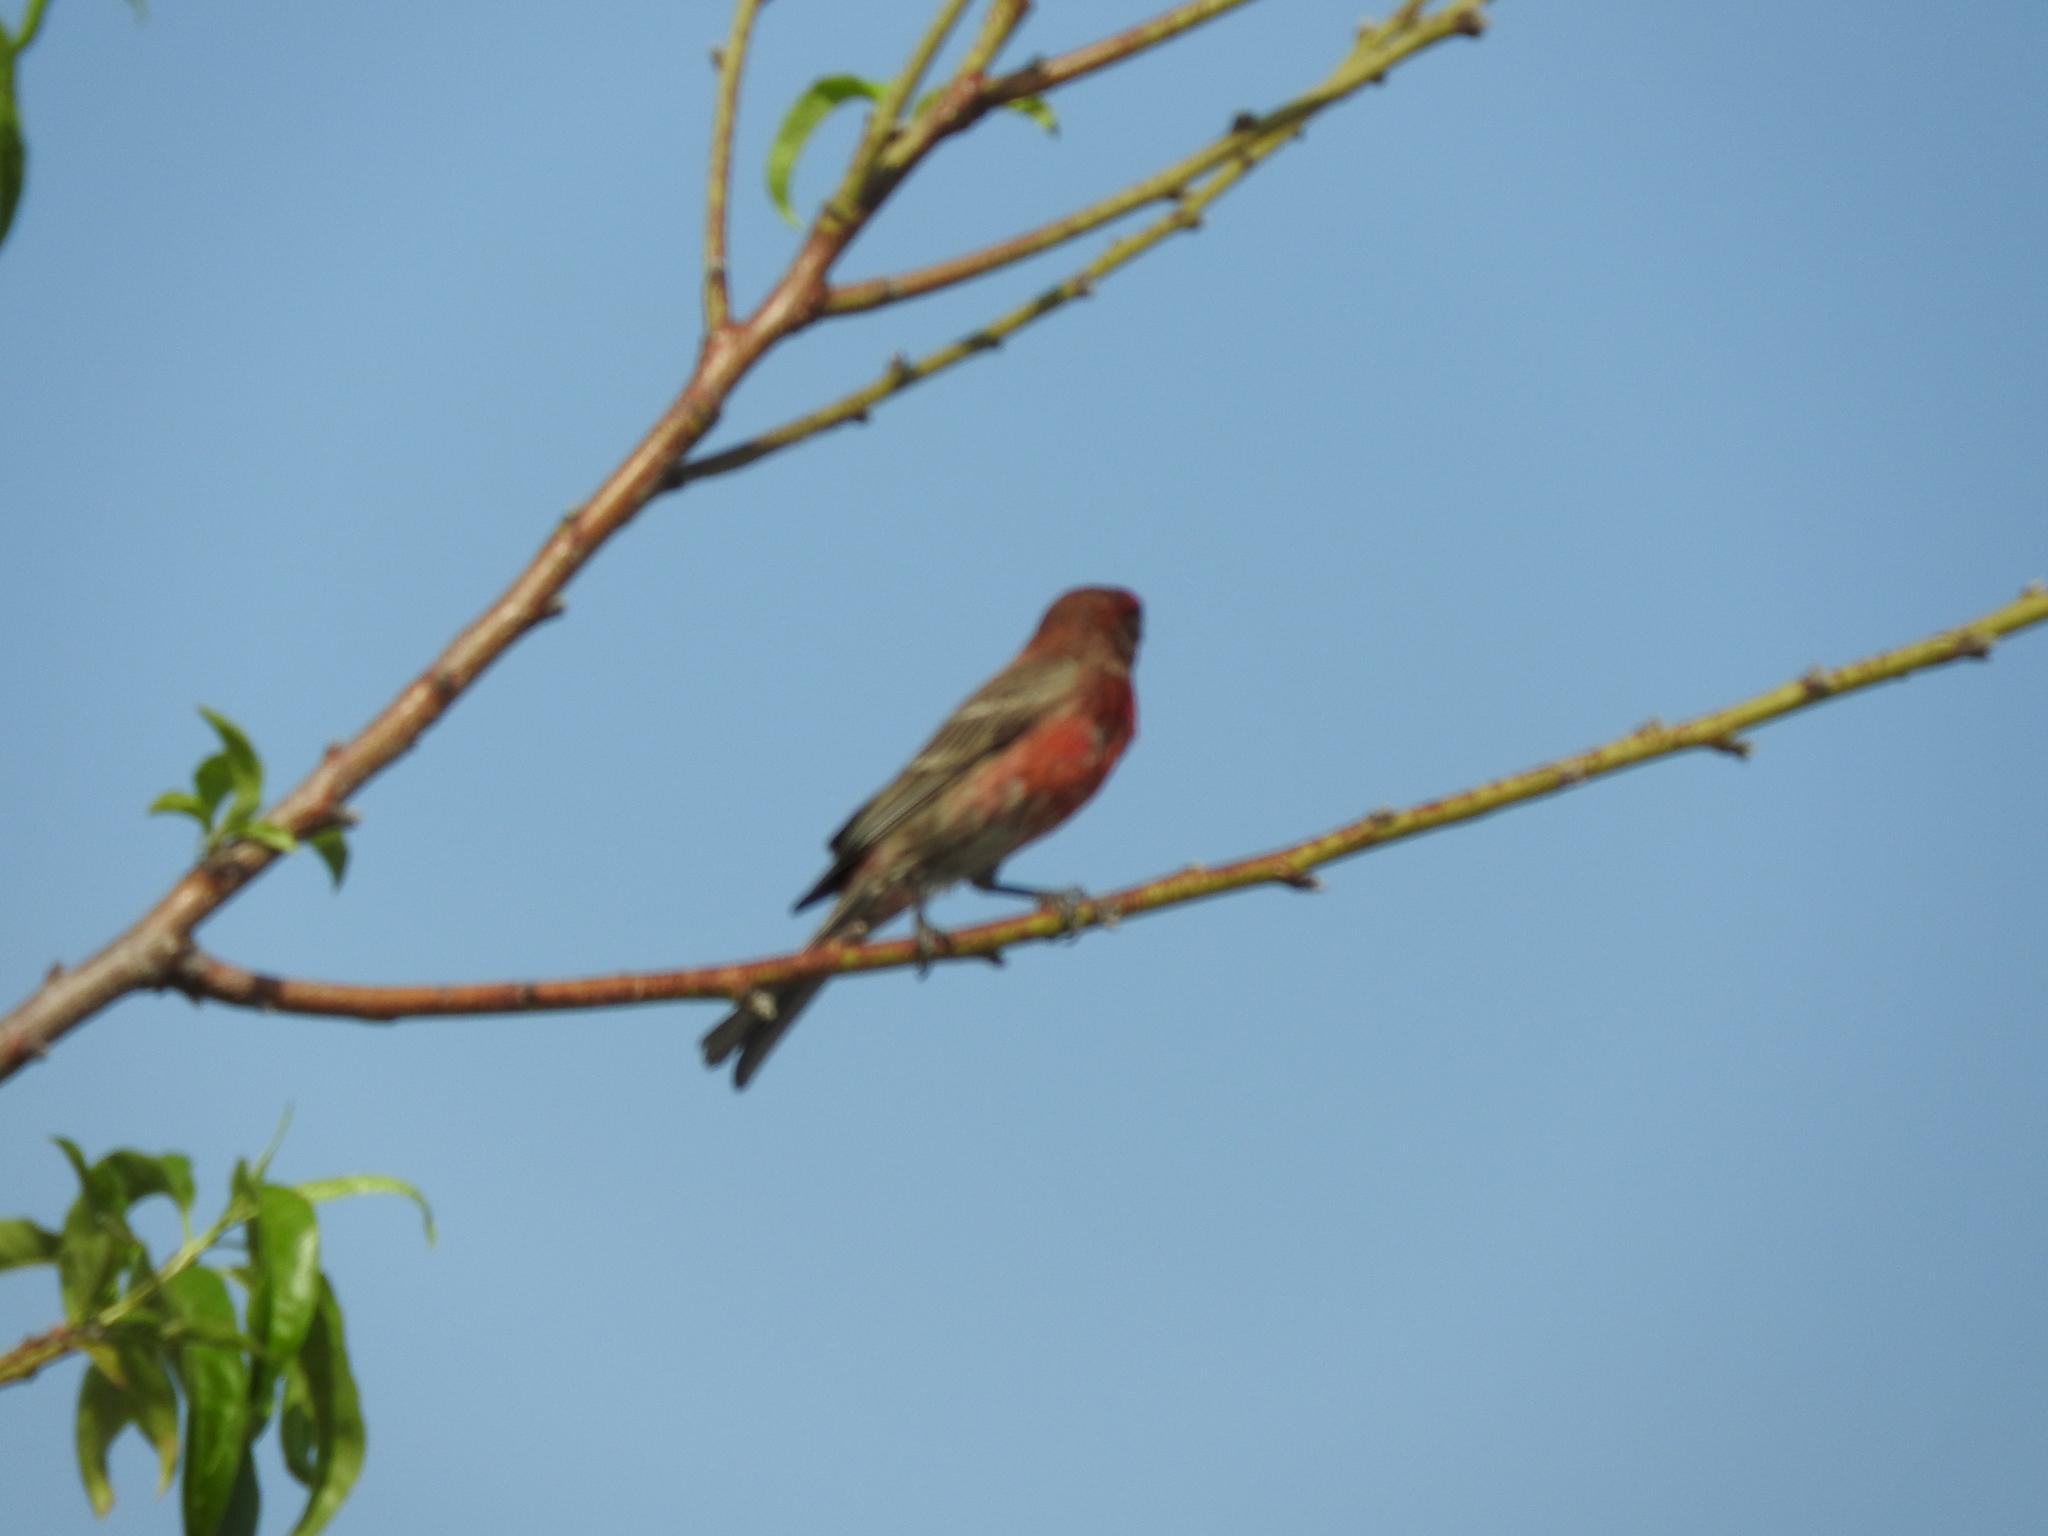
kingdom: Animalia
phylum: Chordata
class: Aves
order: Passeriformes
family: Fringillidae
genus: Haemorhous
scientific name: Haemorhous mexicanus
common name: House finch
